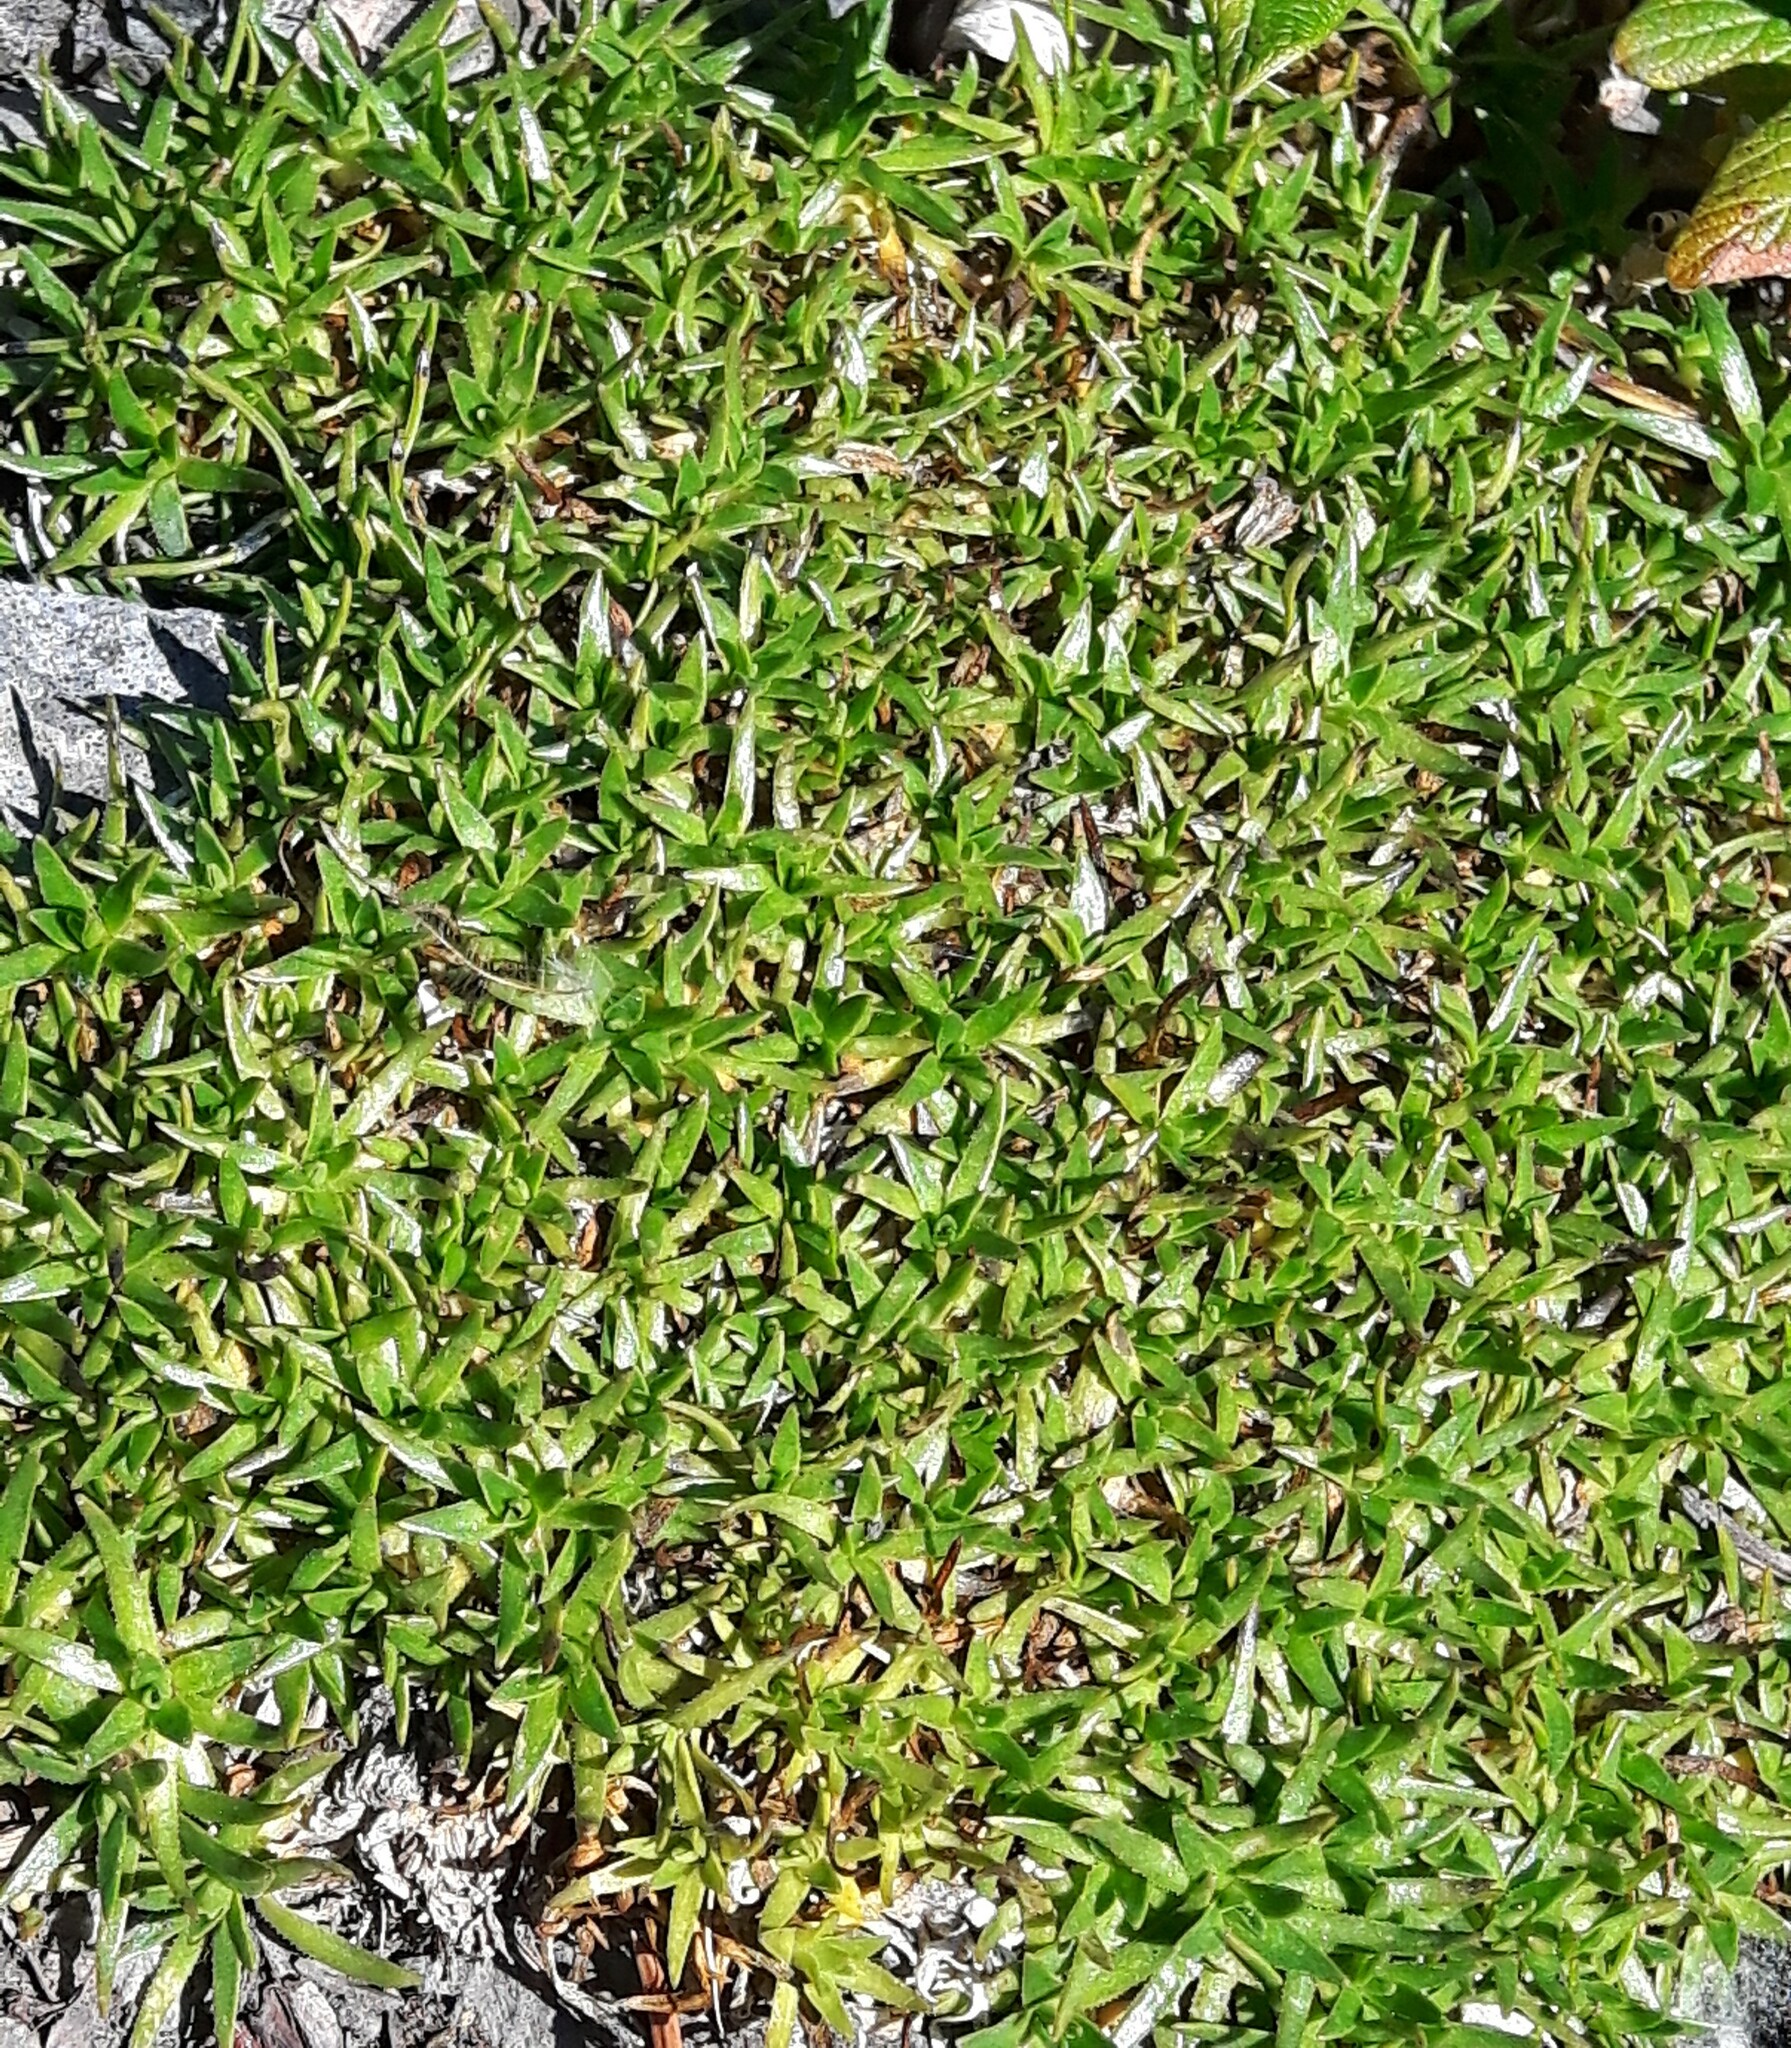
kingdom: Plantae
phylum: Tracheophyta
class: Magnoliopsida
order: Caryophyllales
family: Caryophyllaceae
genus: Silene
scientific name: Silene acaulis
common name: Moss campion
